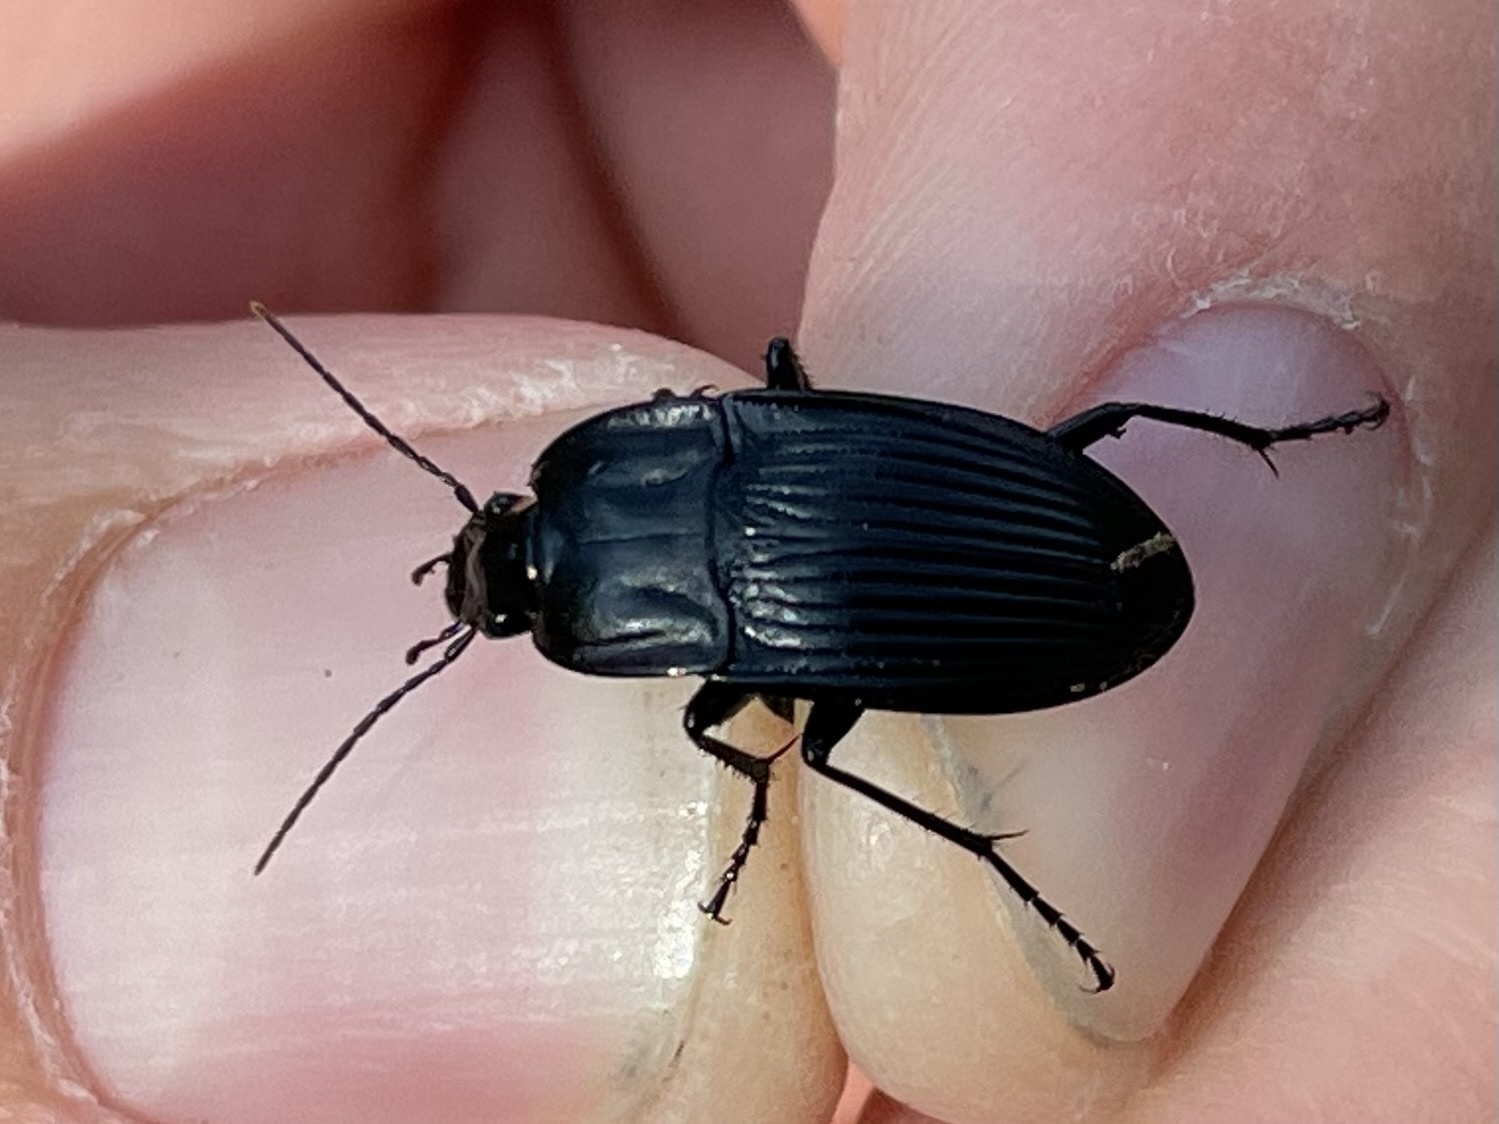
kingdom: Animalia
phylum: Arthropoda
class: Insecta
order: Coleoptera
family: Carabidae
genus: Dicaelus
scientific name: Dicaelus crenatus
